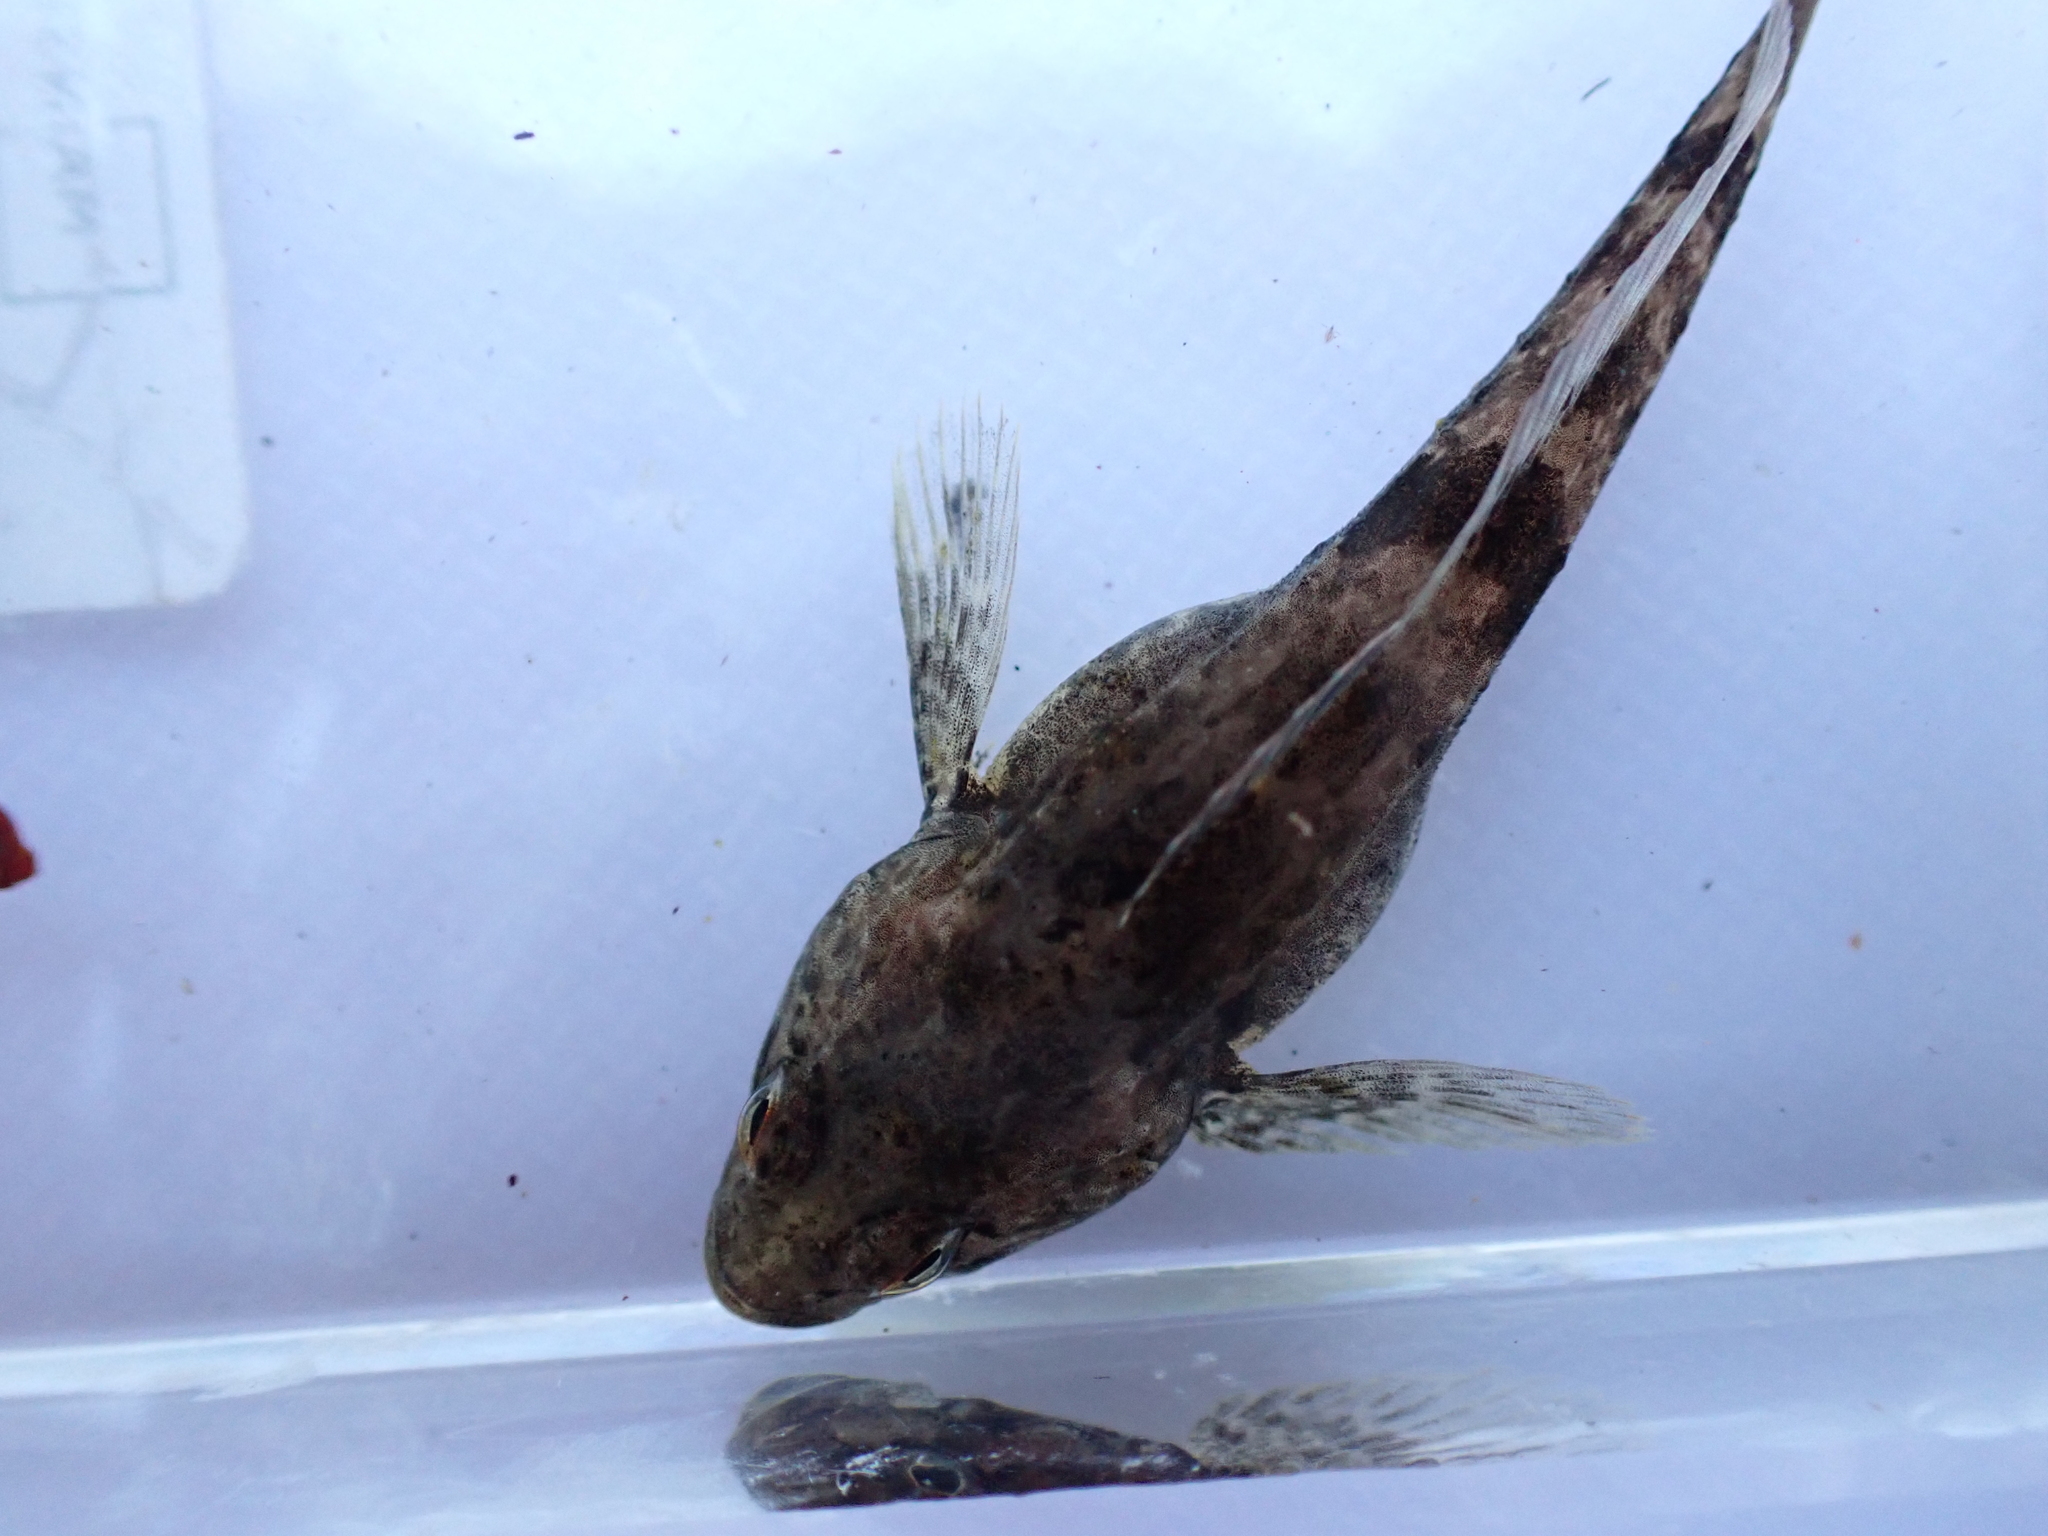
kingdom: Animalia
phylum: Chordata
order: Scorpaeniformes
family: Cottidae
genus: Cottus
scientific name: Cottus asper
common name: Prickly sculpin
